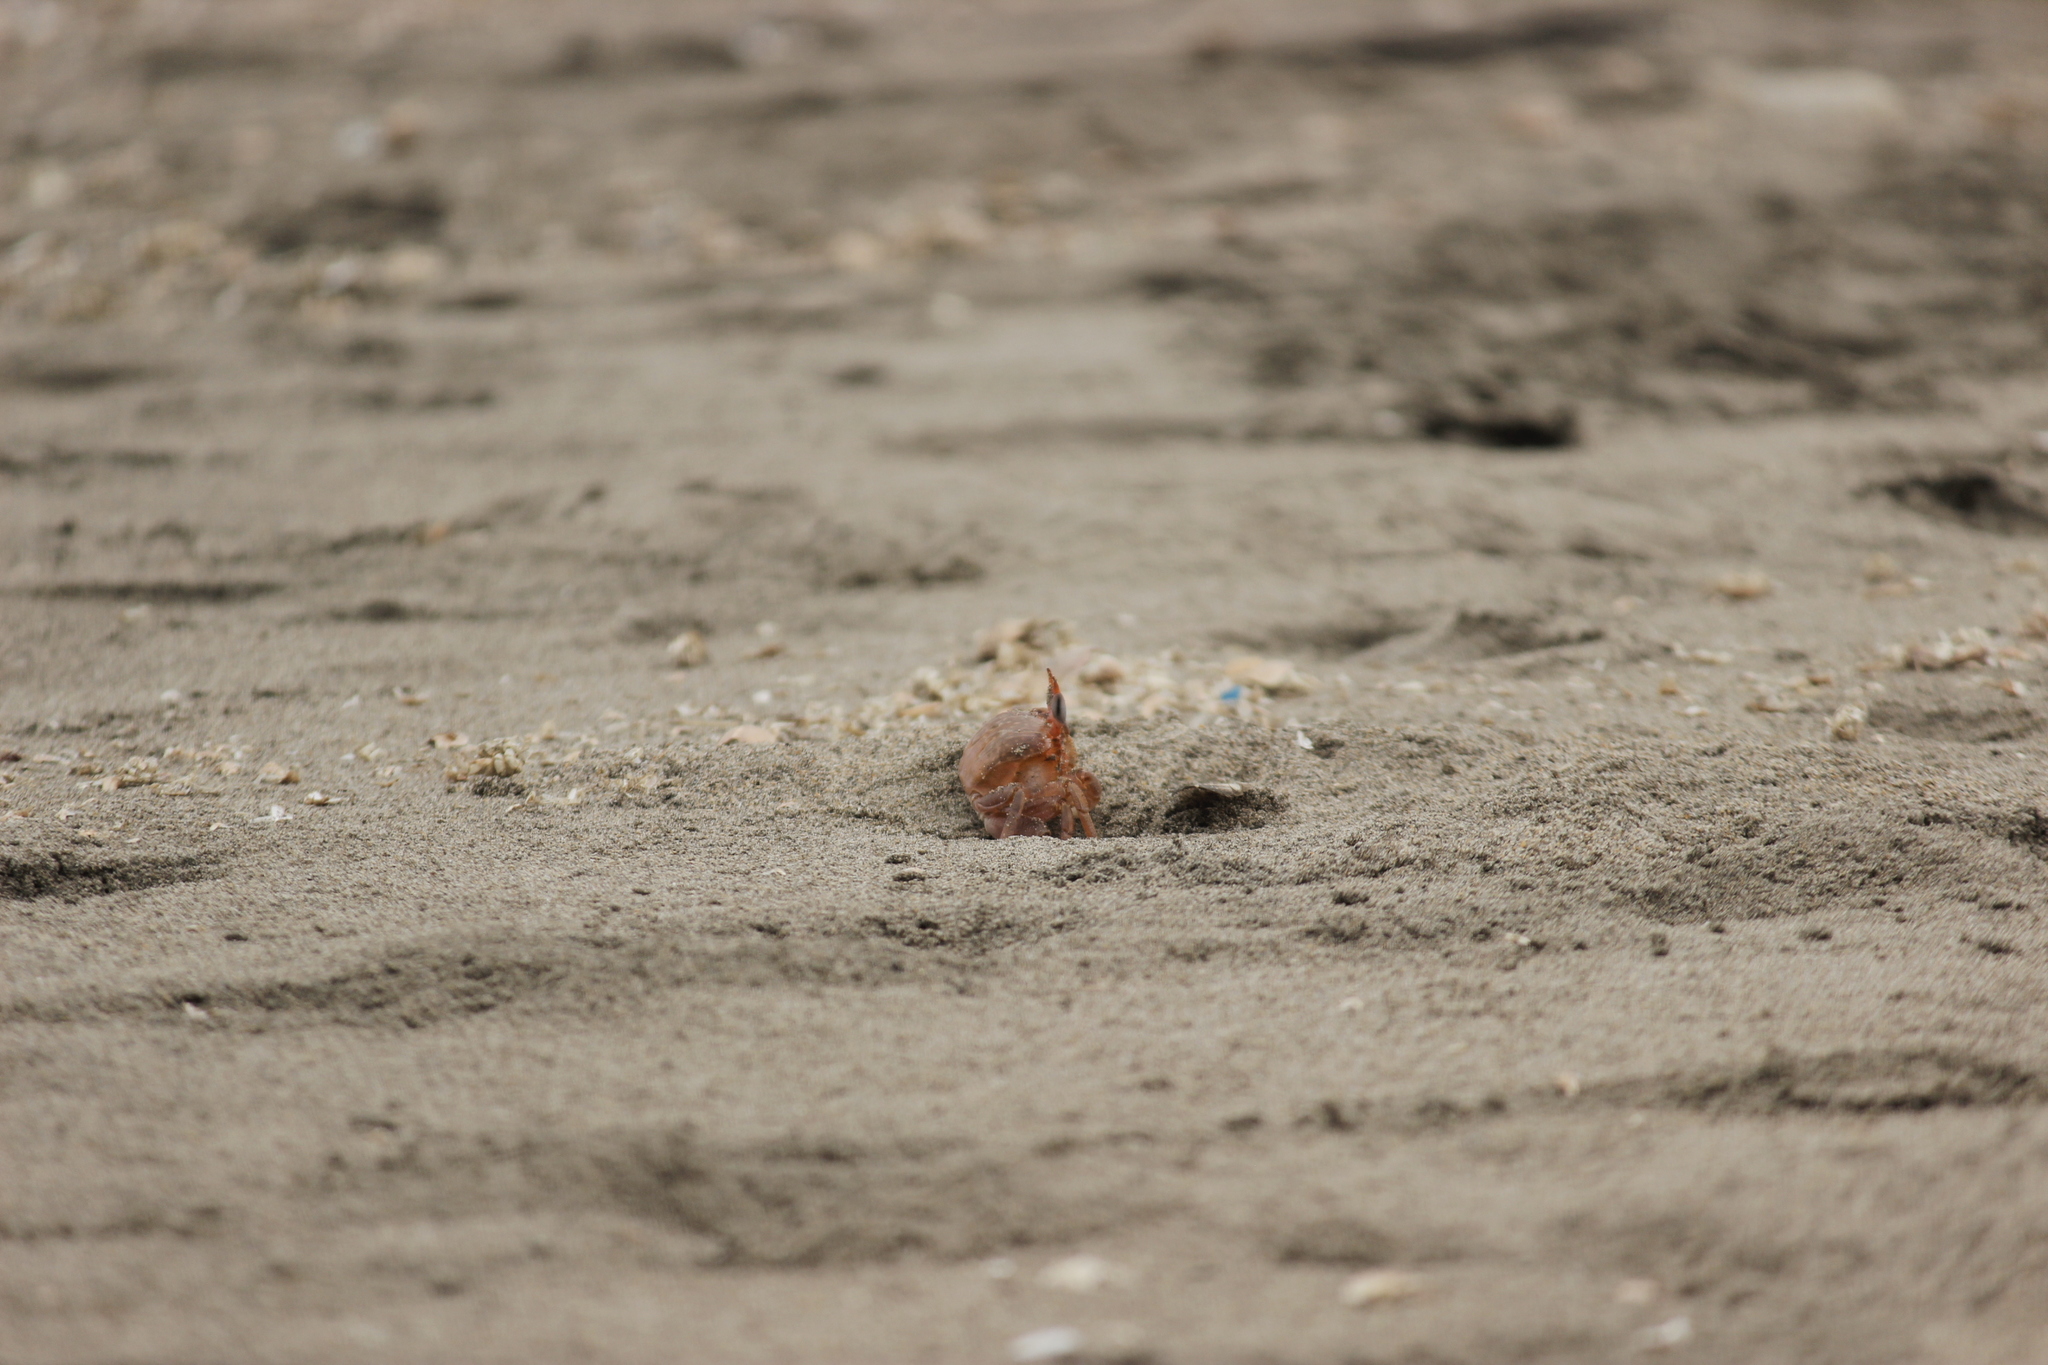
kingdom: Animalia
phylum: Arthropoda
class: Malacostraca
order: Decapoda
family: Ocypodidae
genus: Ocypode
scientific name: Ocypode gaudichaudii
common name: Pacific ghost crab
